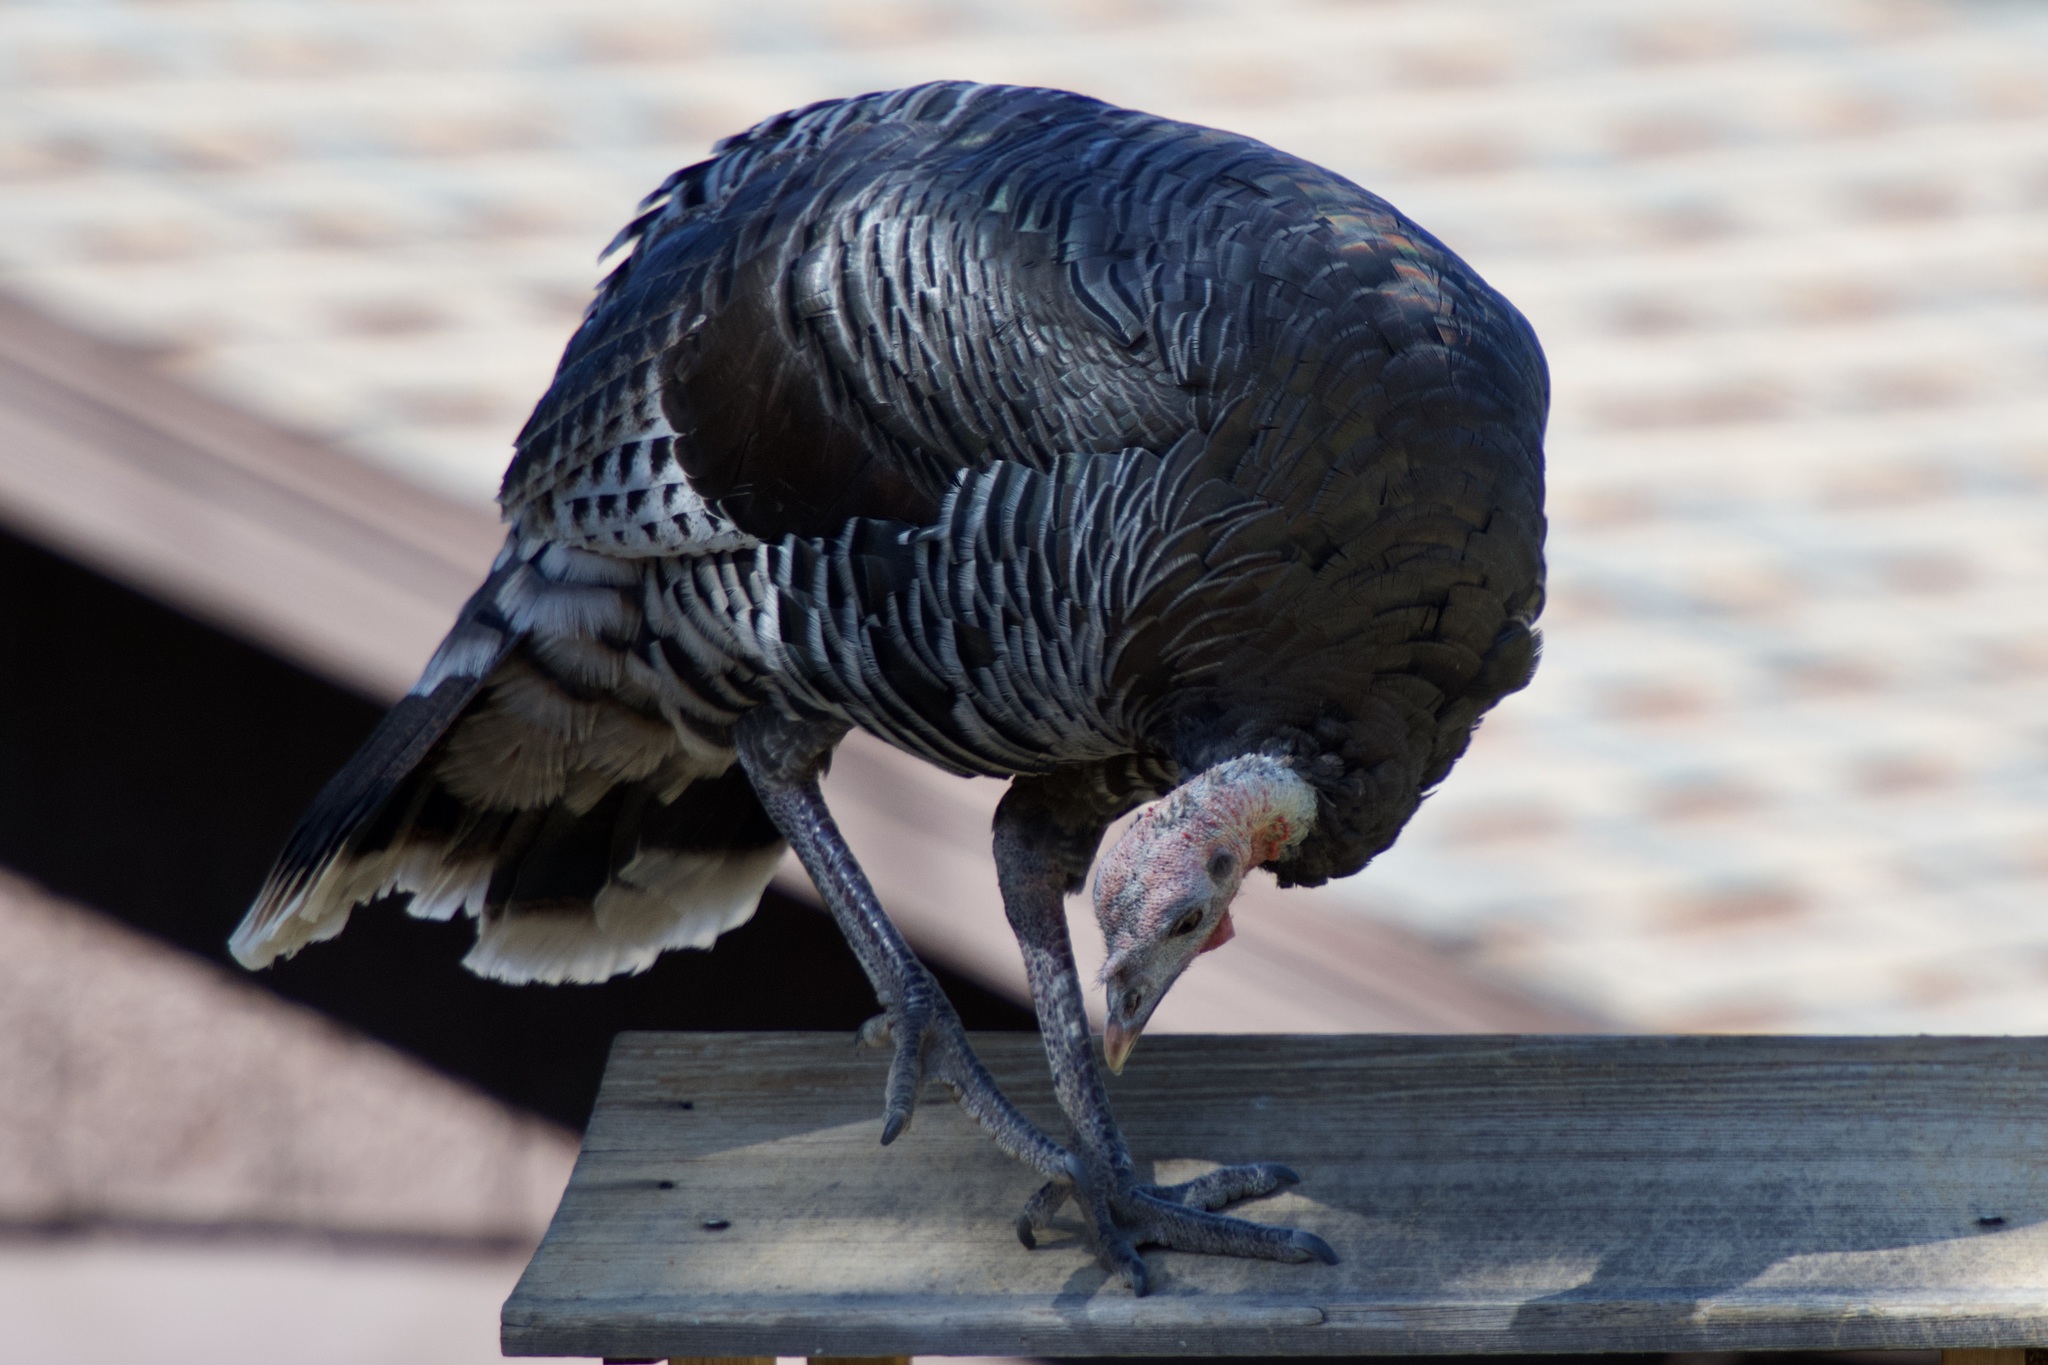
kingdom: Animalia
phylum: Chordata
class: Aves
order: Galliformes
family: Phasianidae
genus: Meleagris
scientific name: Meleagris gallopavo
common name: Wild turkey
